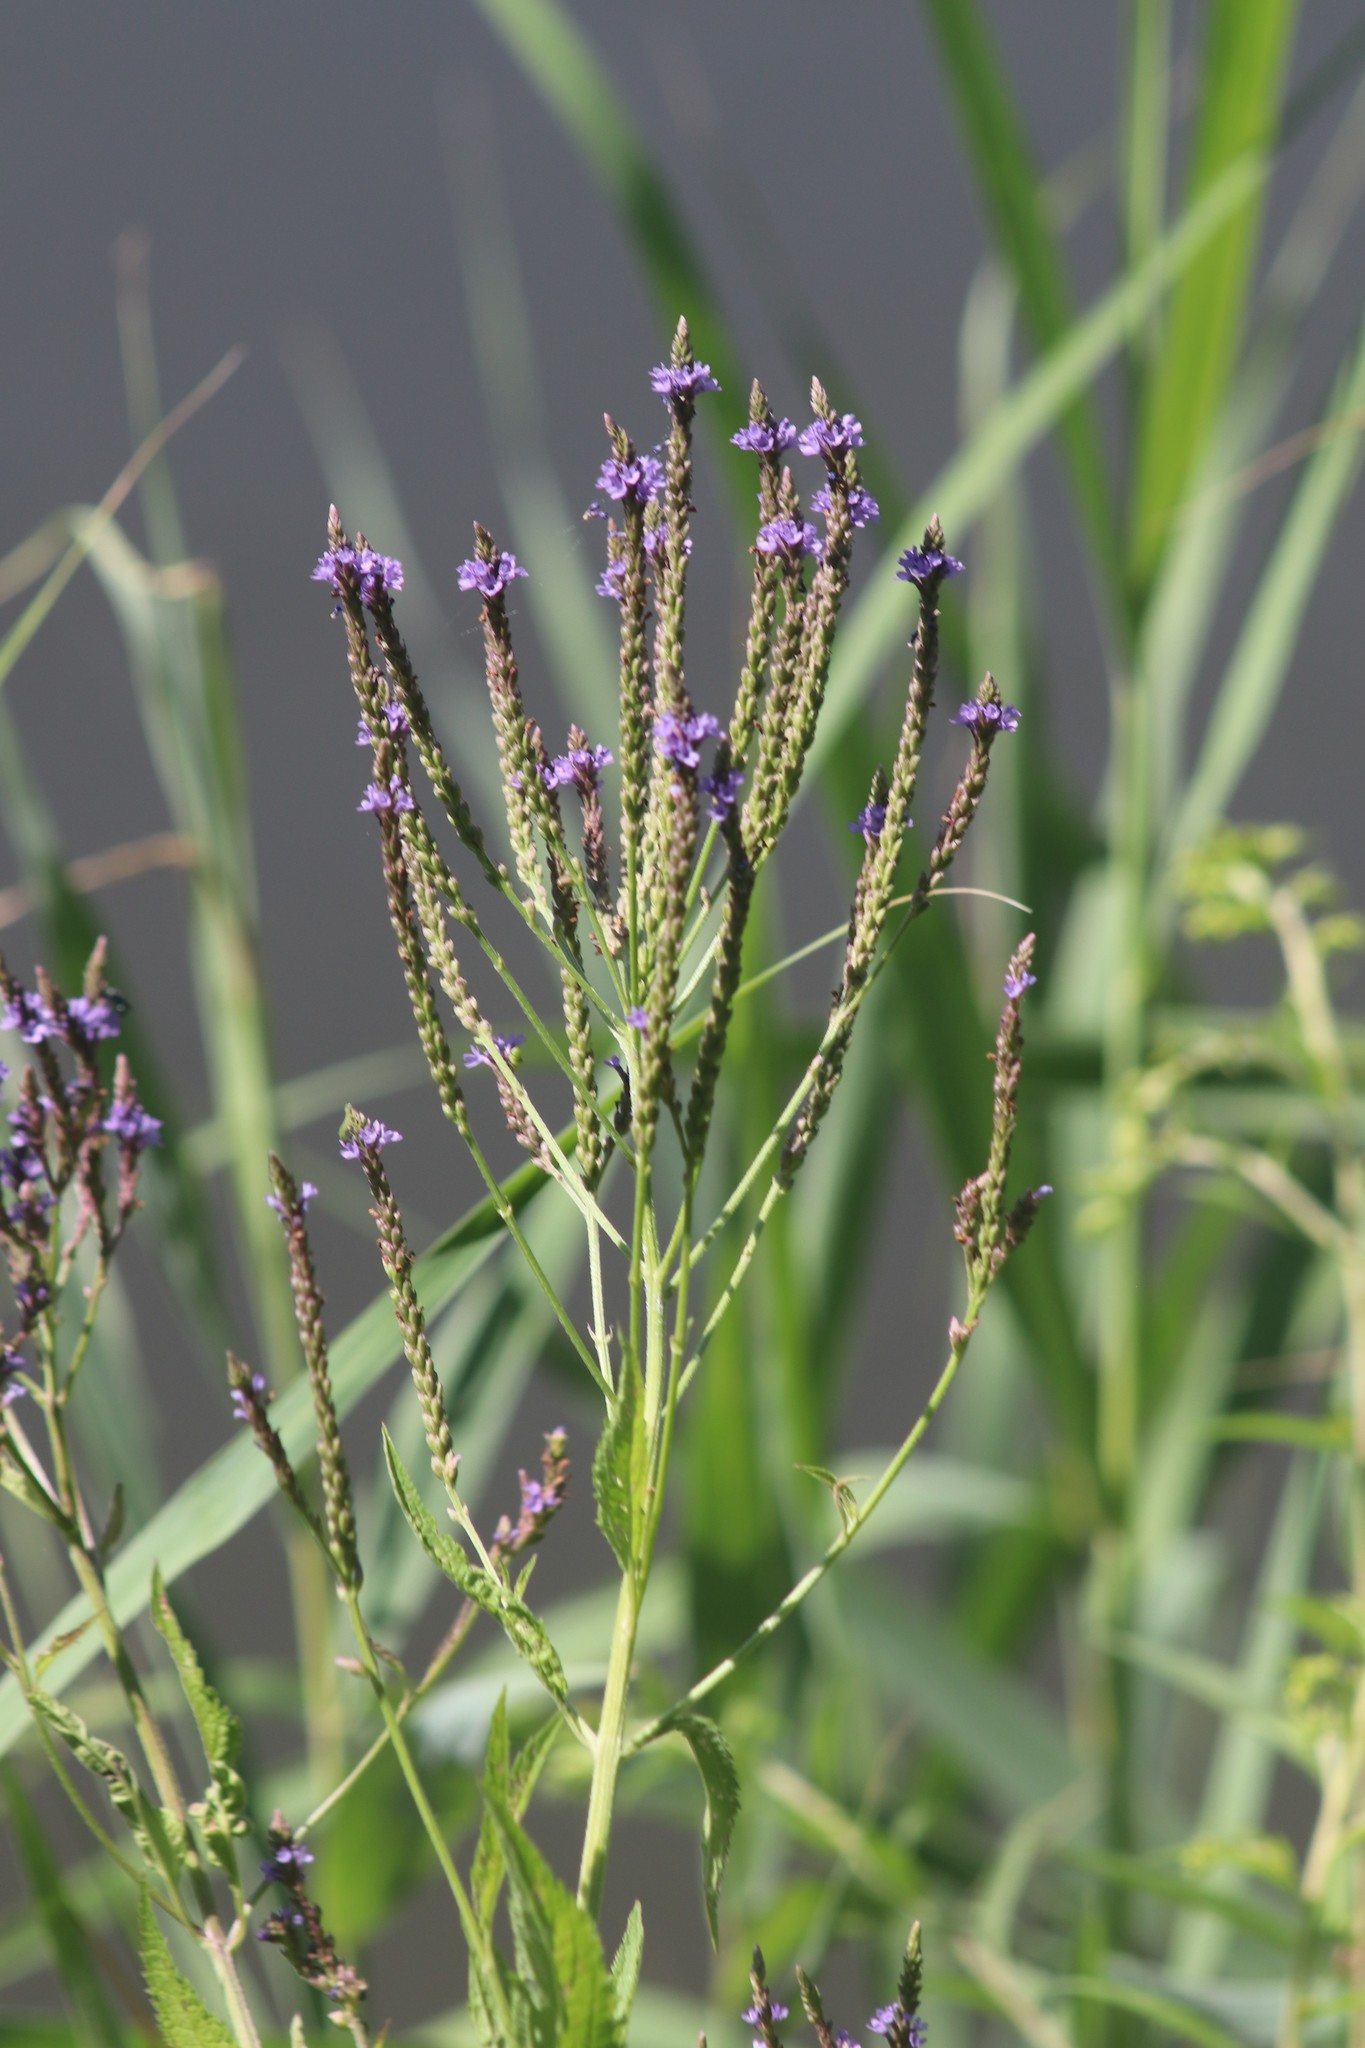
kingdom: Plantae
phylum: Tracheophyta
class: Magnoliopsida
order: Lamiales
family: Verbenaceae
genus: Verbena
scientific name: Verbena hastata
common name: American blue vervain
